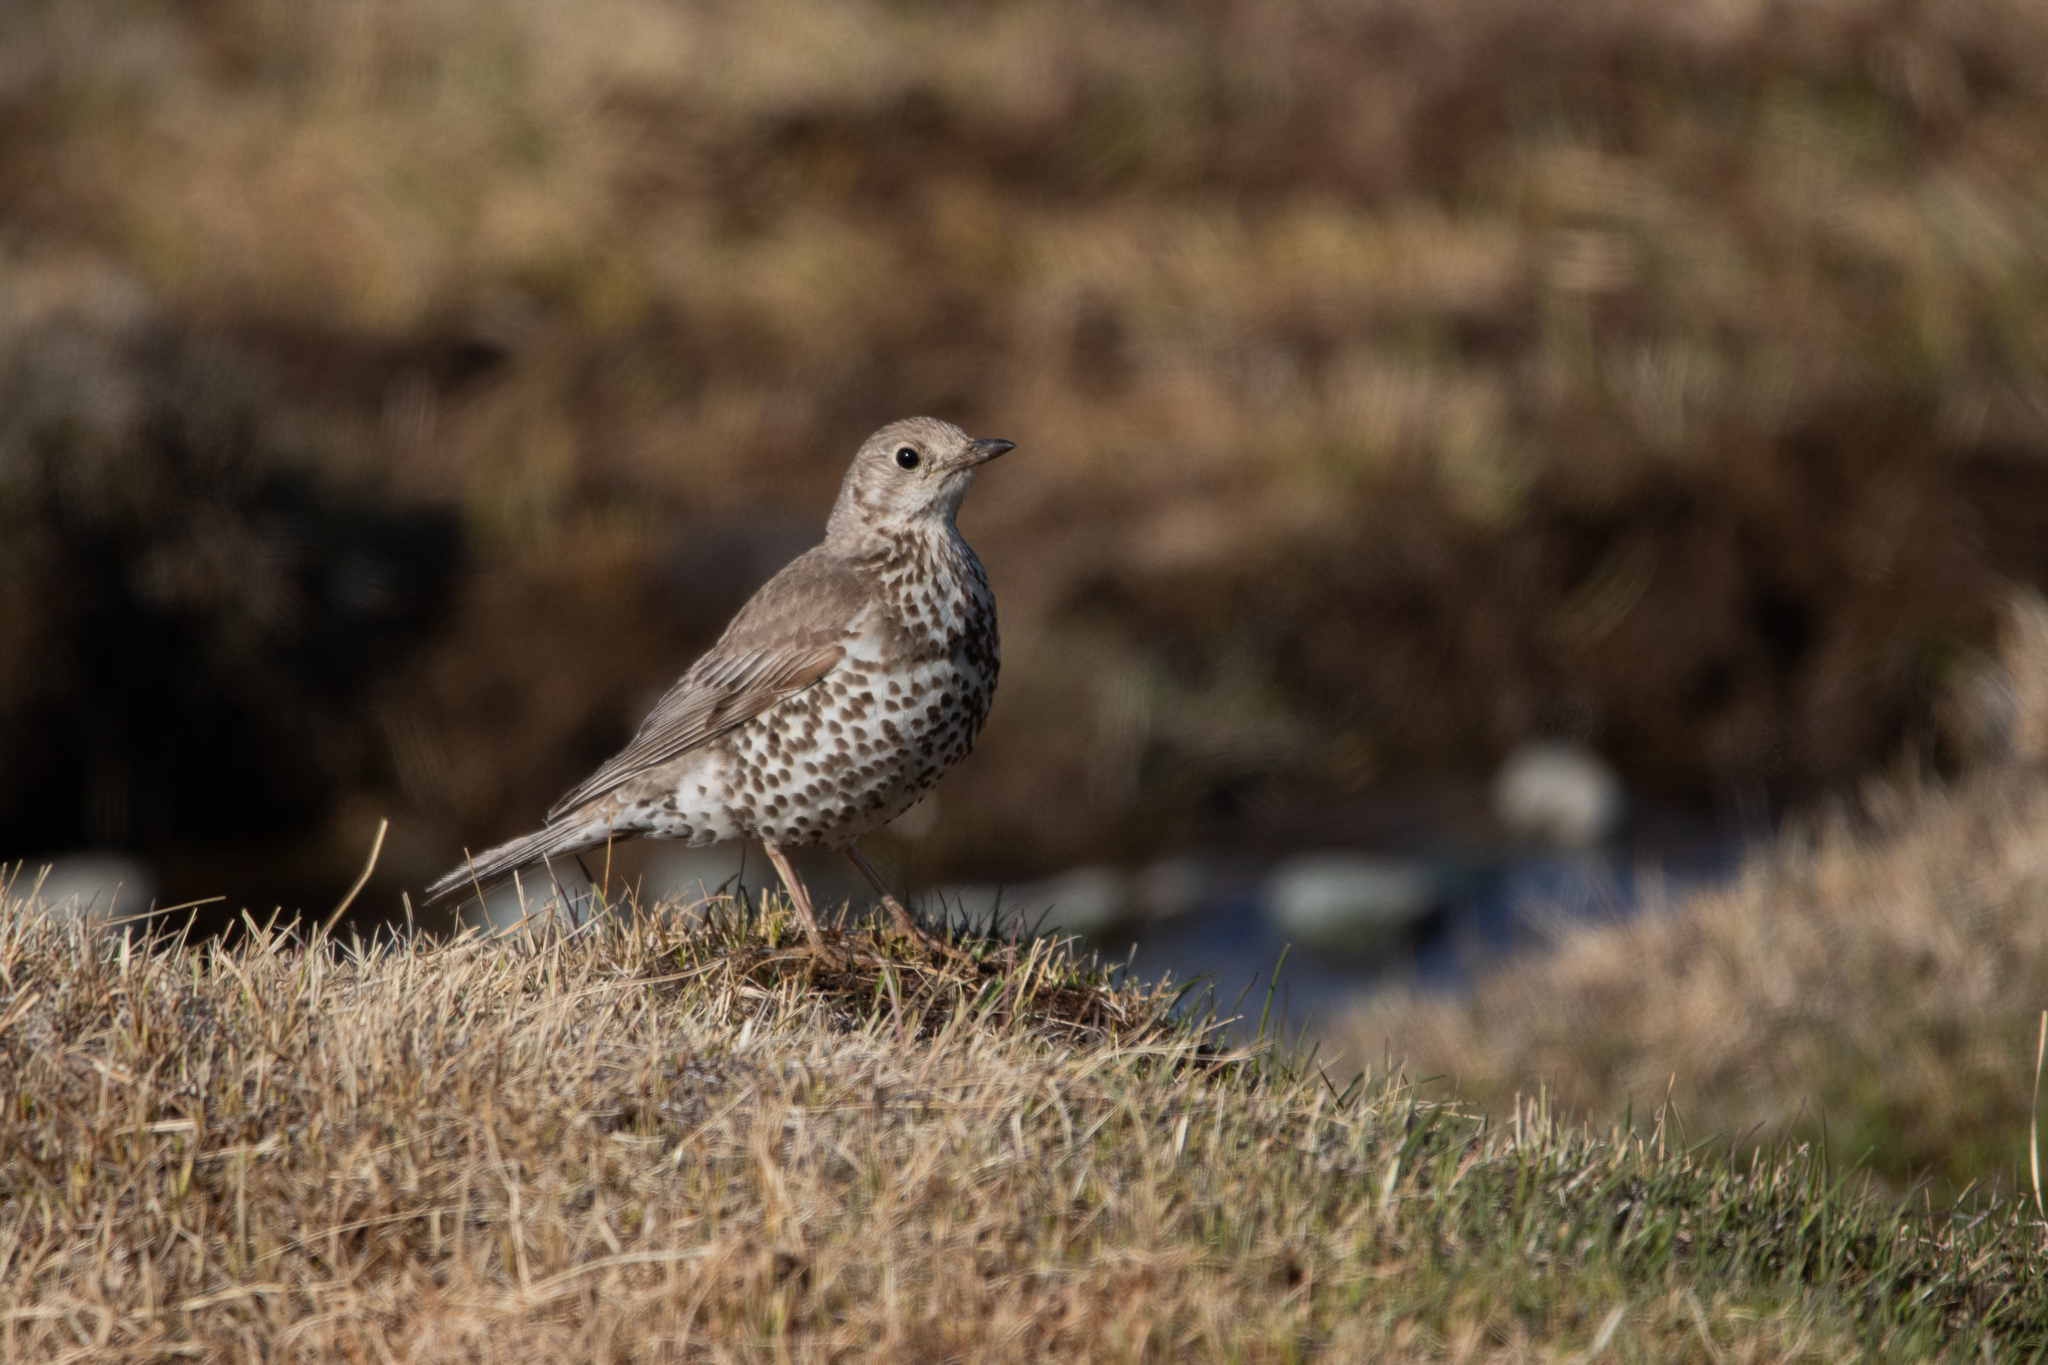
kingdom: Animalia
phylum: Chordata
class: Aves
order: Passeriformes
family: Turdidae
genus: Turdus
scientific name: Turdus viscivorus
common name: Mistle thrush
